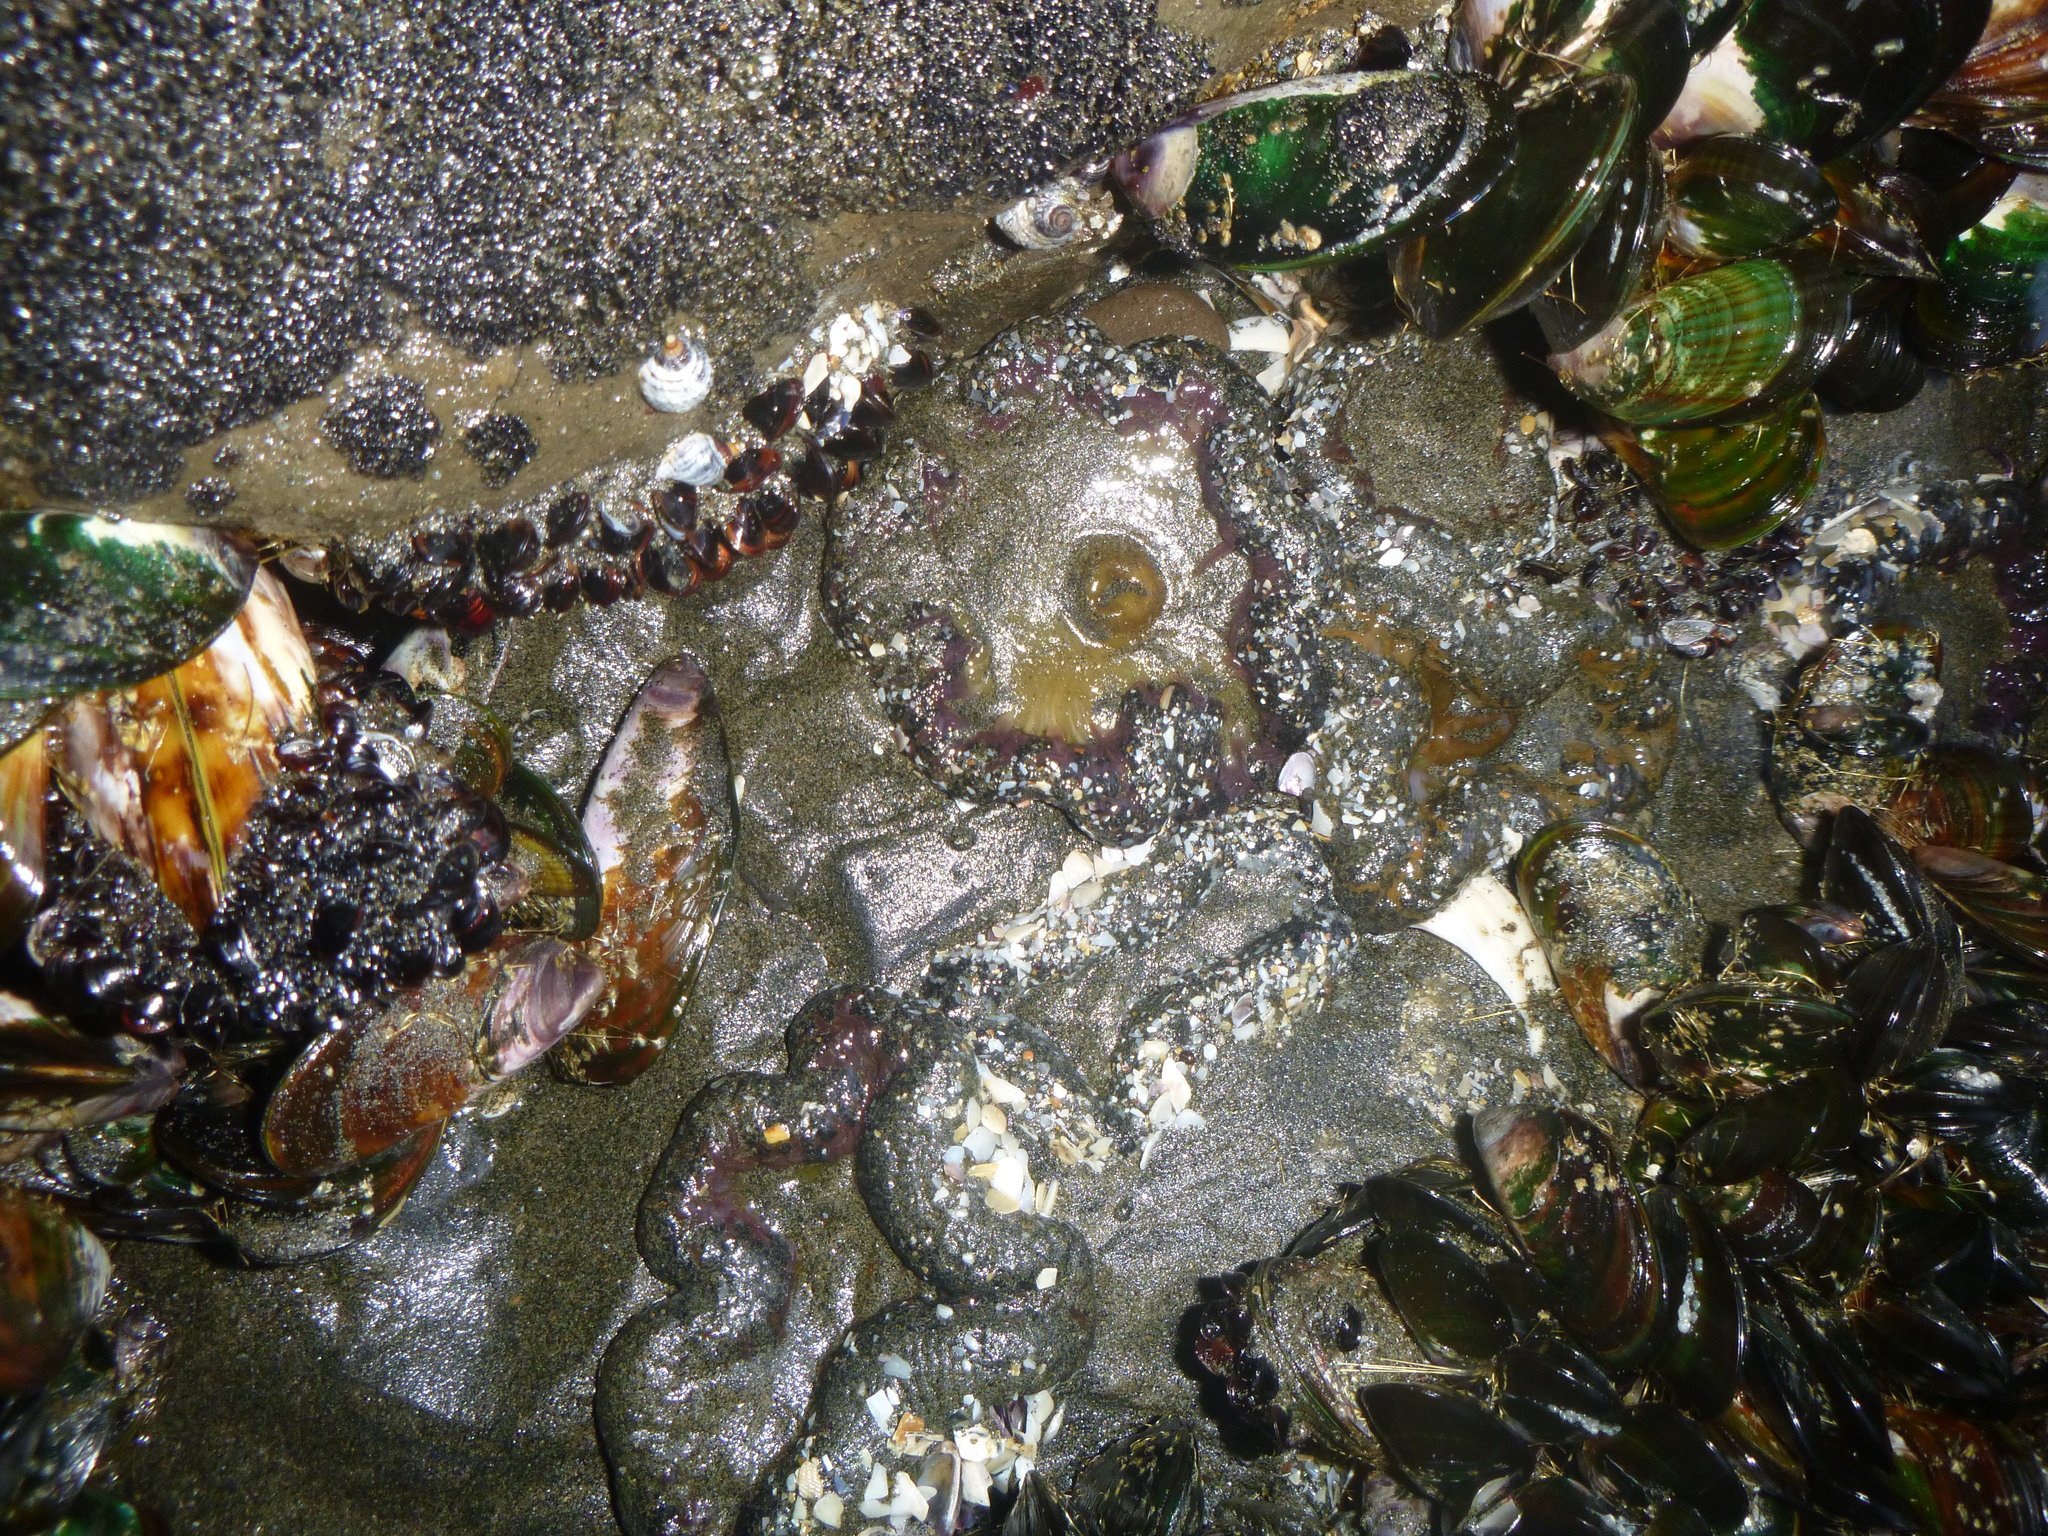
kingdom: Animalia
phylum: Cnidaria
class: Anthozoa
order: Actiniaria
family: Actiniidae
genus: Oulactis
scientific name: Oulactis magna
